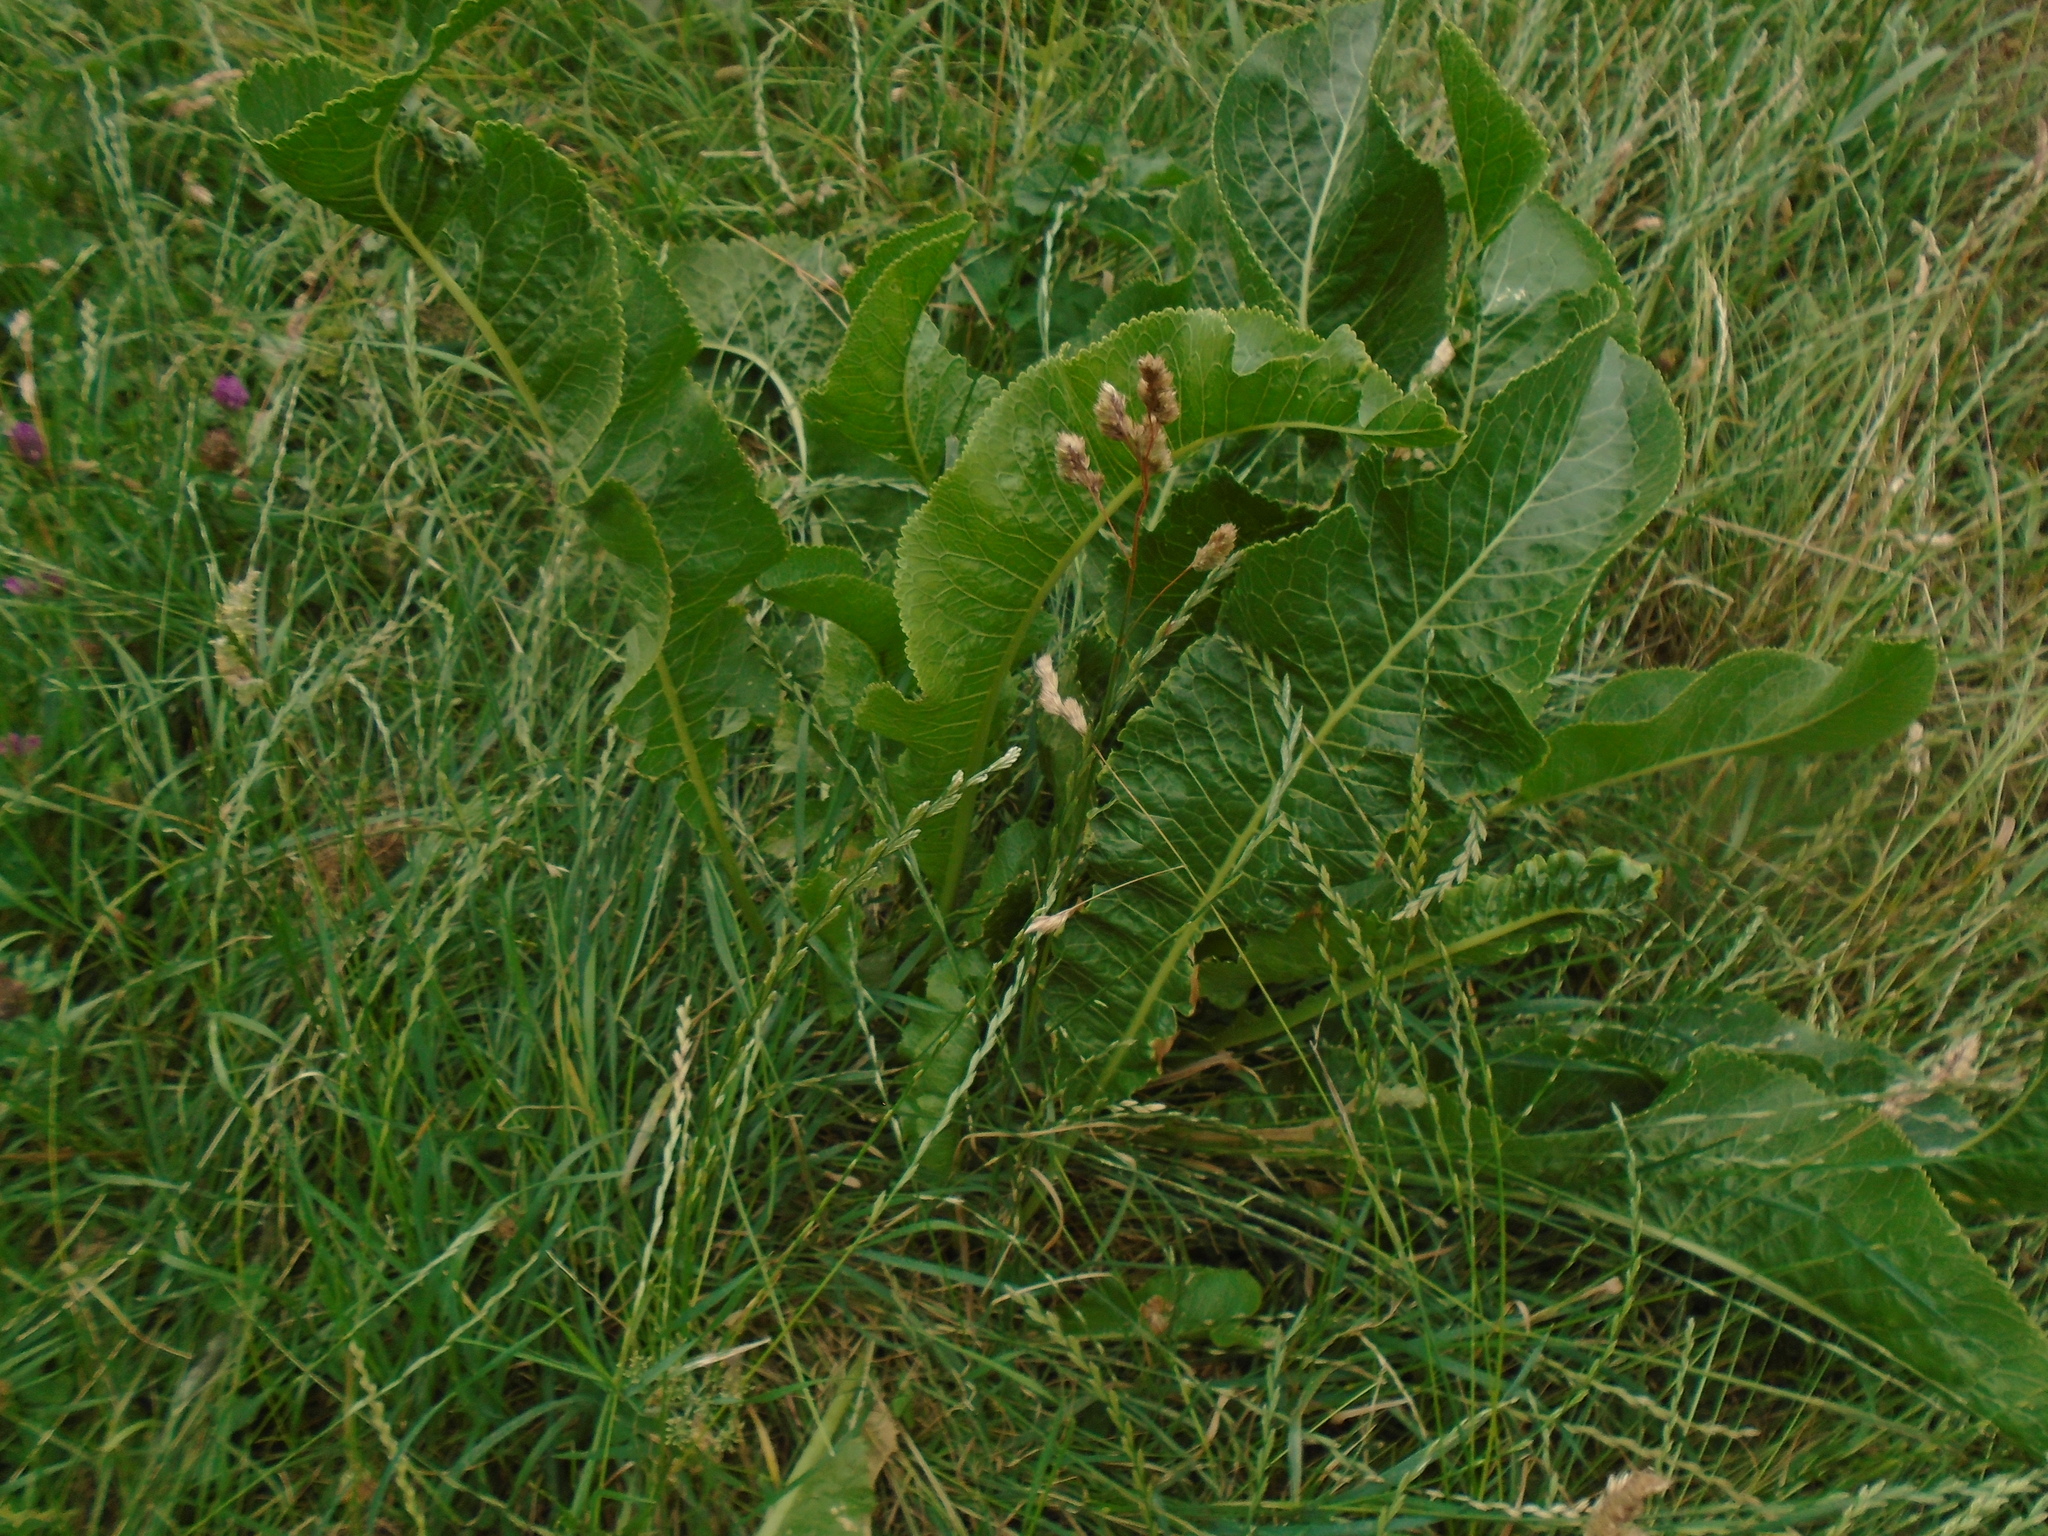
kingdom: Plantae
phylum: Tracheophyta
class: Magnoliopsida
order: Brassicales
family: Brassicaceae
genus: Armoracia
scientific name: Armoracia rusticana
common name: Horseradish
